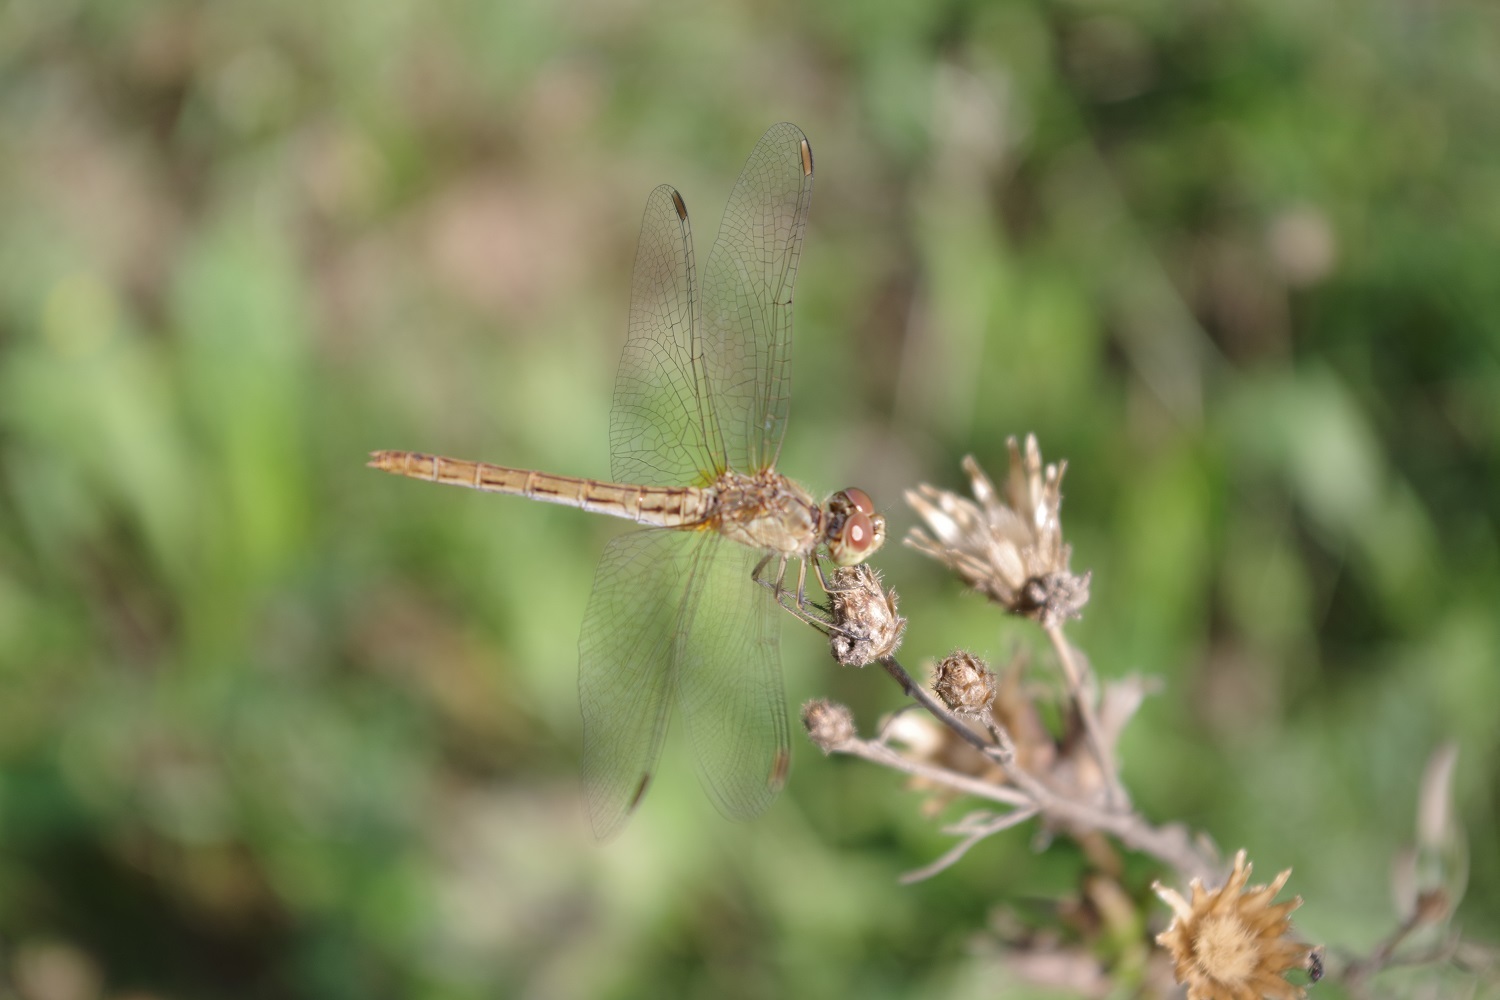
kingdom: Animalia
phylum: Arthropoda
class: Insecta
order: Odonata
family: Libellulidae
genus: Sympetrum
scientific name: Sympetrum meridionale
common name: Southern darter
